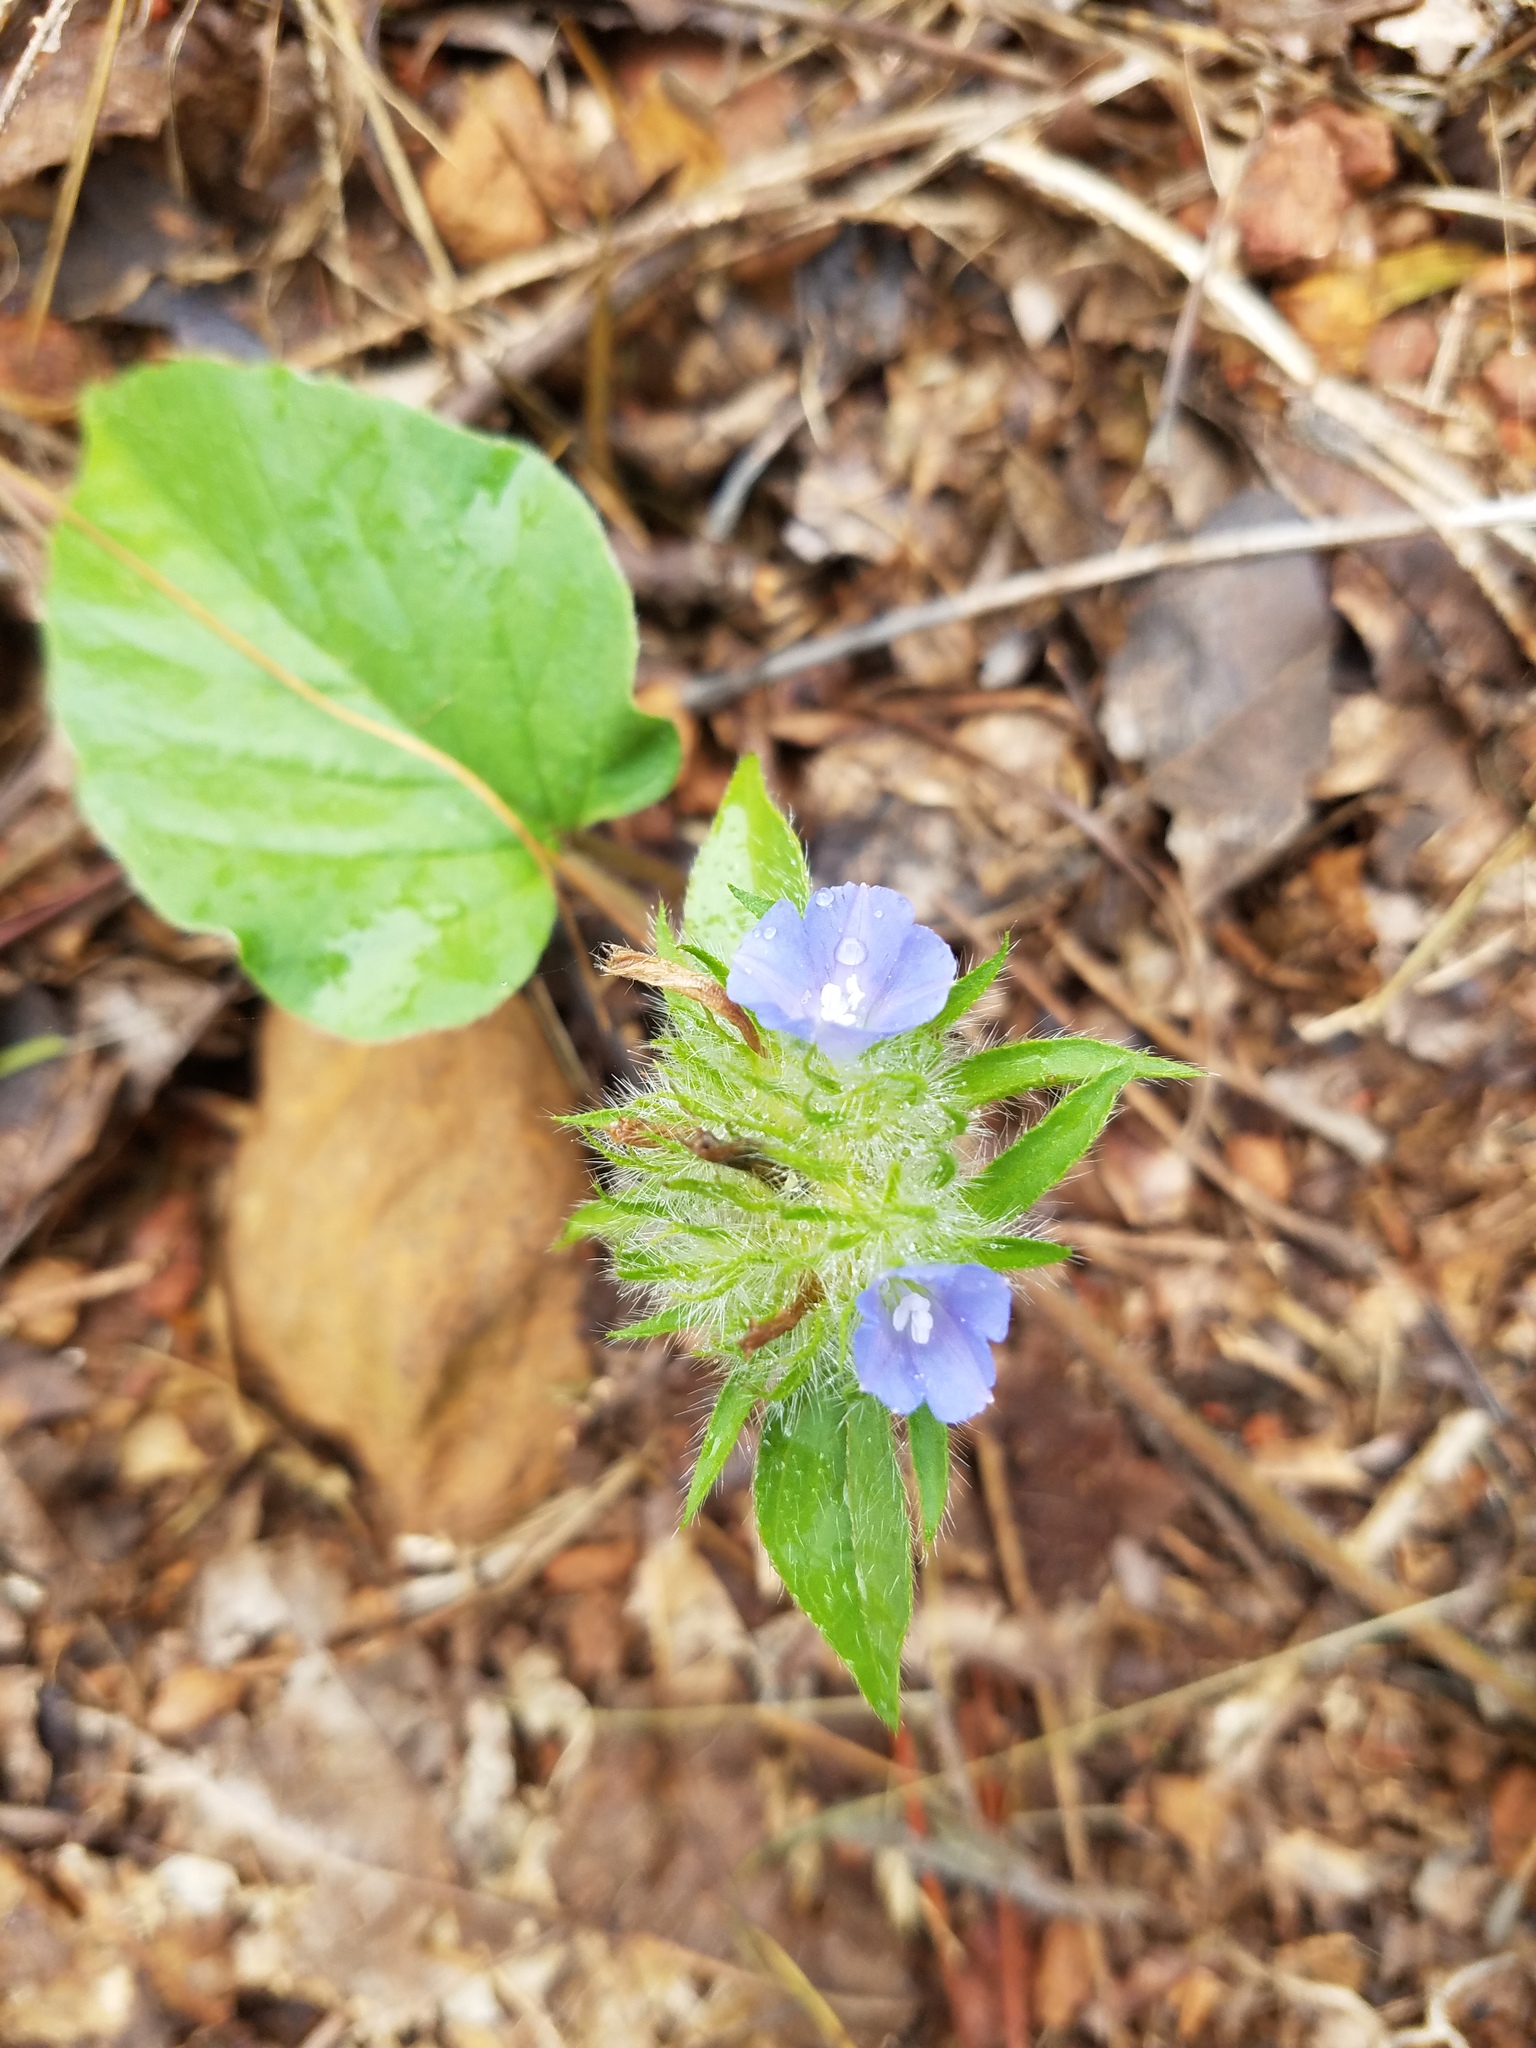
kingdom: Plantae
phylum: Tracheophyta
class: Magnoliopsida
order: Solanales
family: Convolvulaceae
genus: Jacquemontia
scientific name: Jacquemontia tamnifolia
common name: Hairy clustervine
